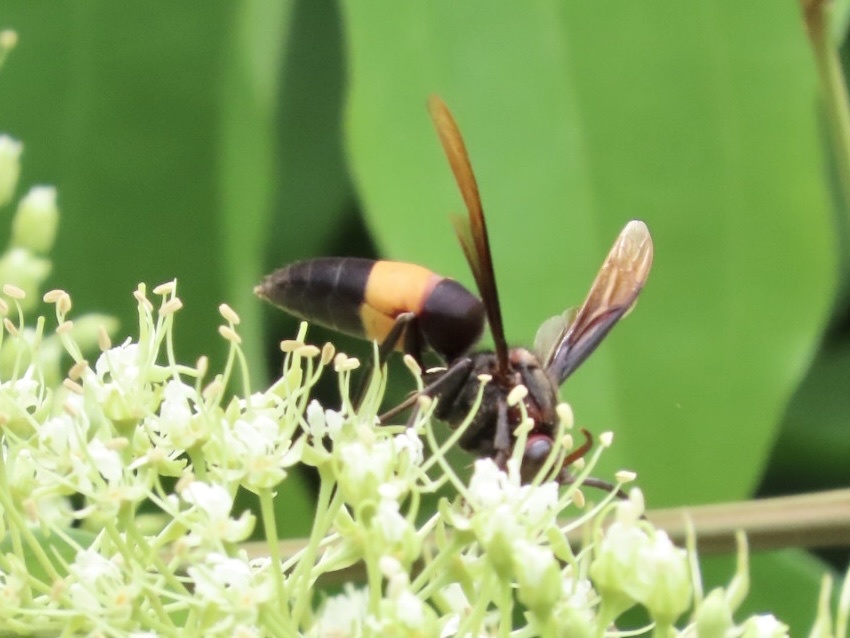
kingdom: Animalia
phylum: Arthropoda
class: Insecta
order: Hymenoptera
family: Vespidae
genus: Vespa
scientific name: Vespa tropica
